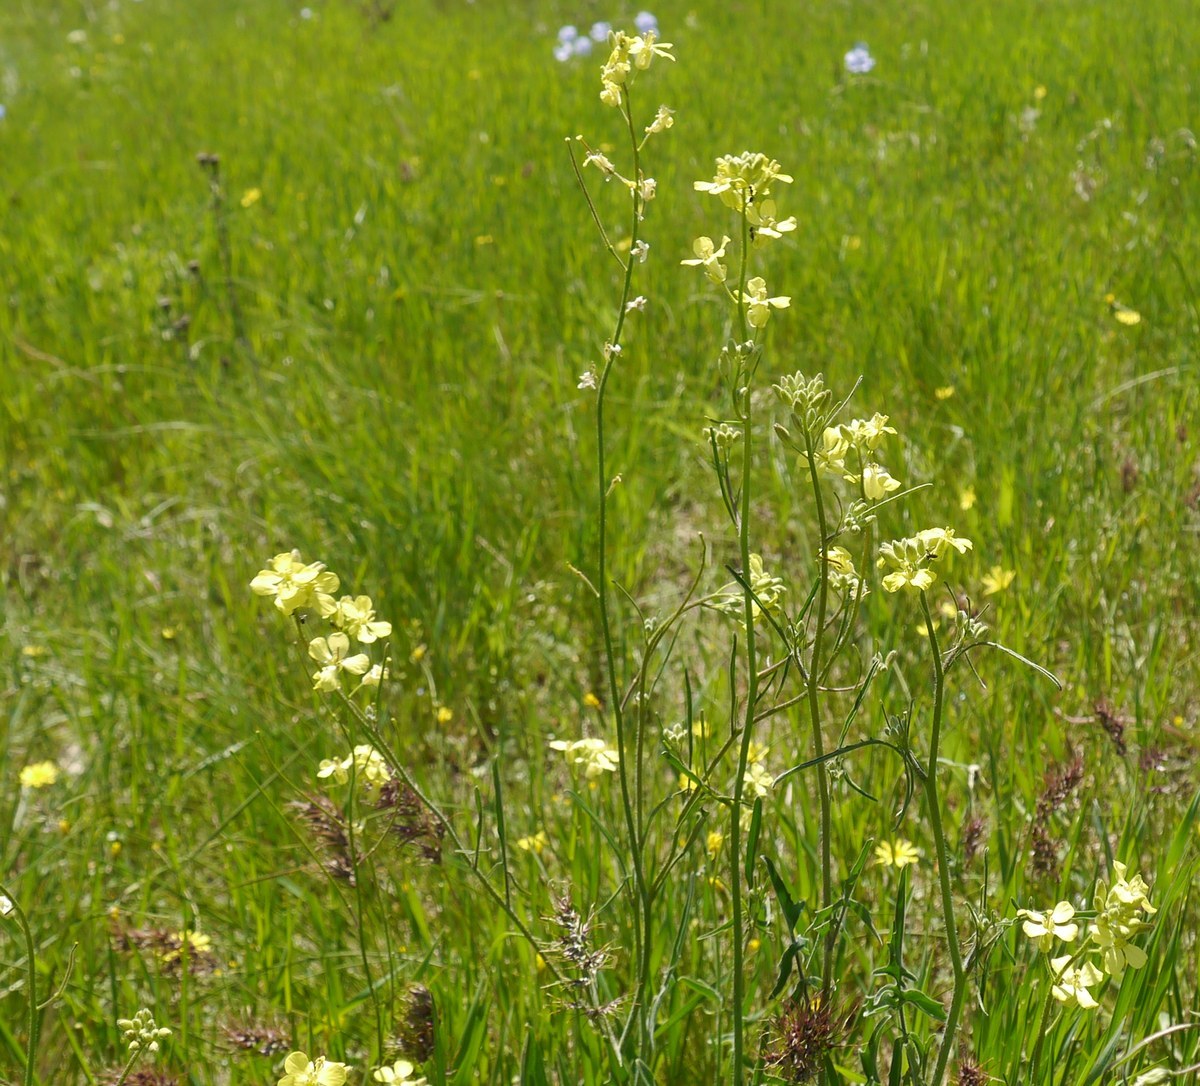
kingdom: Plantae
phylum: Tracheophyta
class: Magnoliopsida
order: Brassicales
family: Brassicaceae
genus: Sisymbrium
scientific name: Sisymbrium polymorphum
